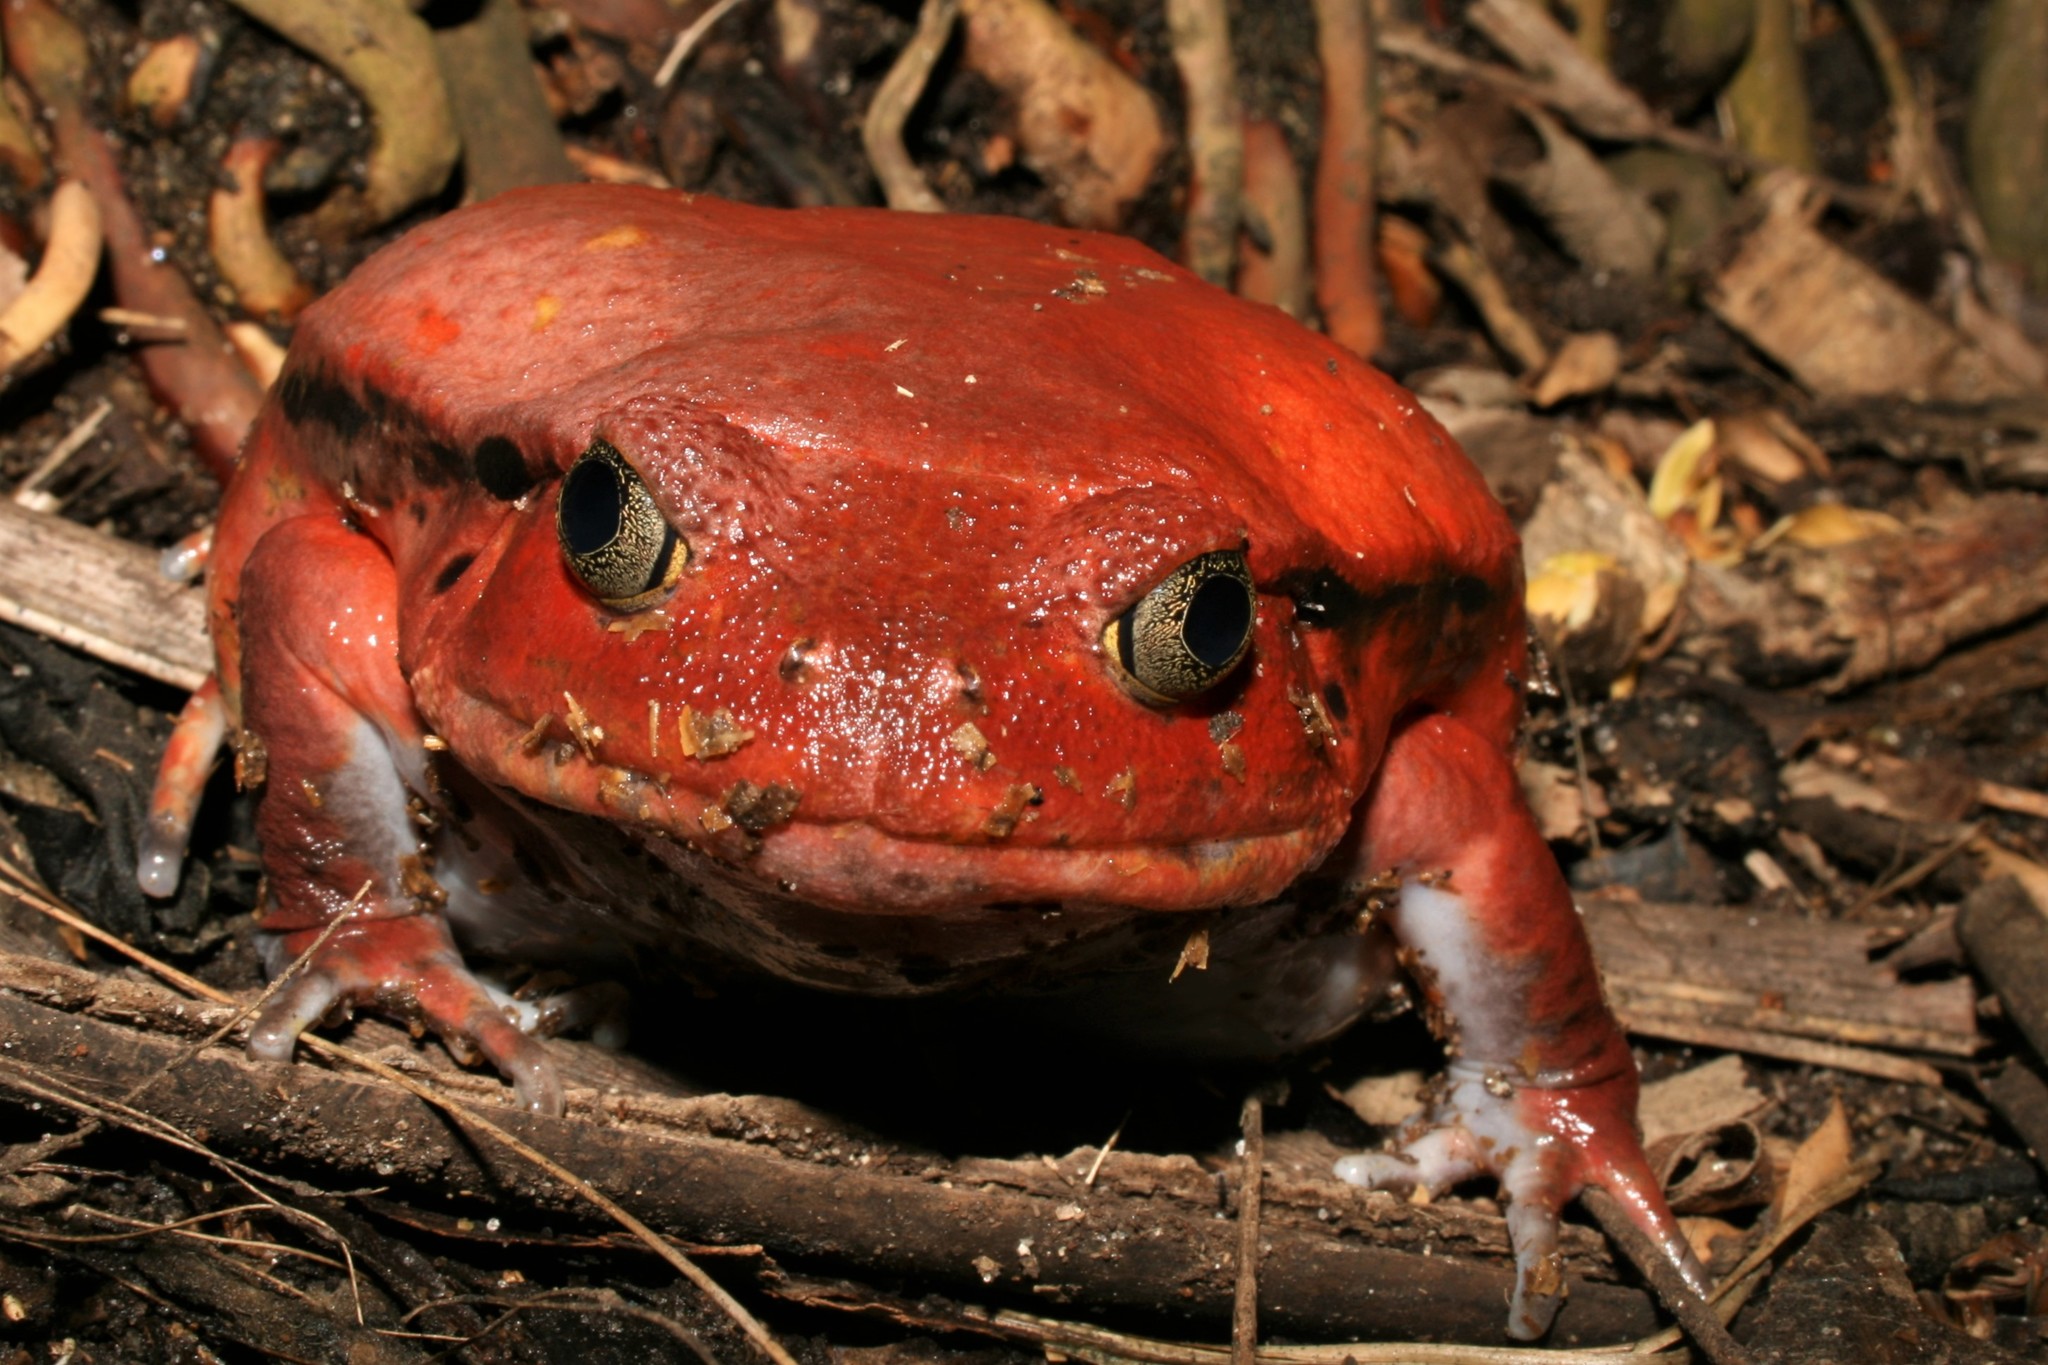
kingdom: Animalia
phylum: Chordata
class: Amphibia
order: Anura
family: Microhylidae
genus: Dyscophus
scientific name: Dyscophus antongilii
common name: Tomato frog
